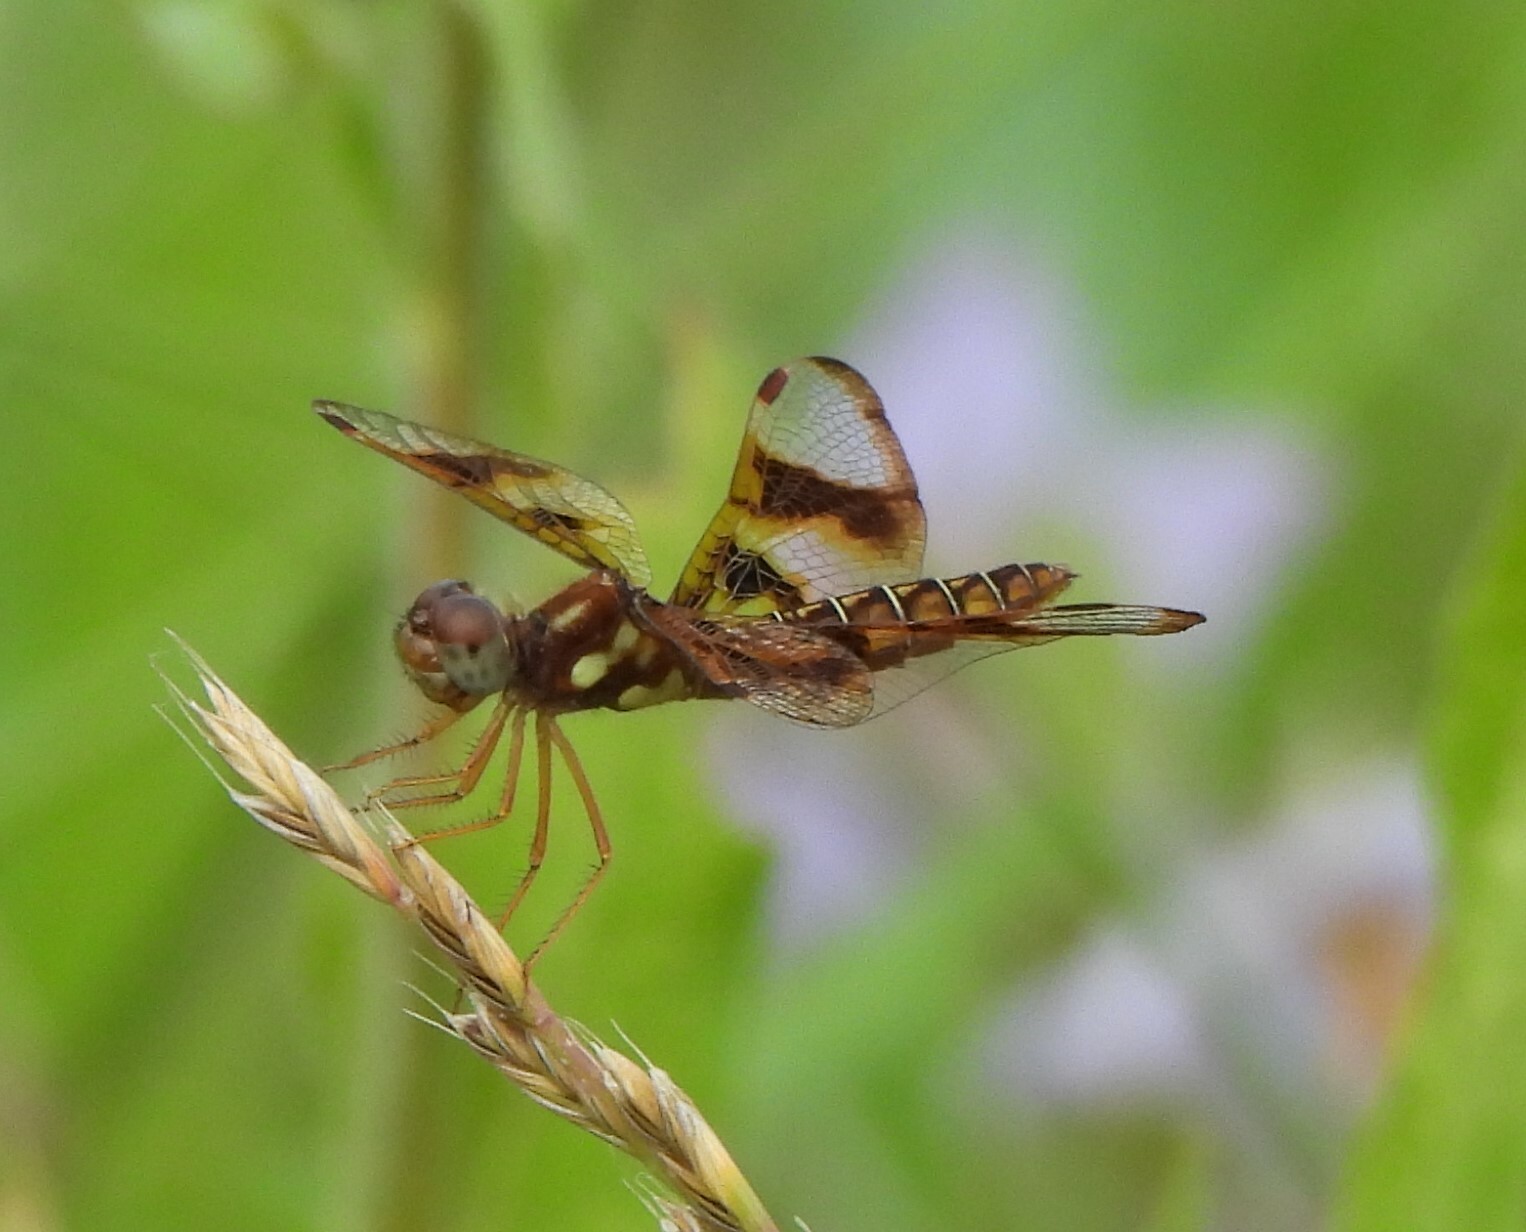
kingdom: Animalia
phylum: Arthropoda
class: Insecta
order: Odonata
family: Libellulidae
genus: Perithemis
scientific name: Perithemis tenera
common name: Eastern amberwing
